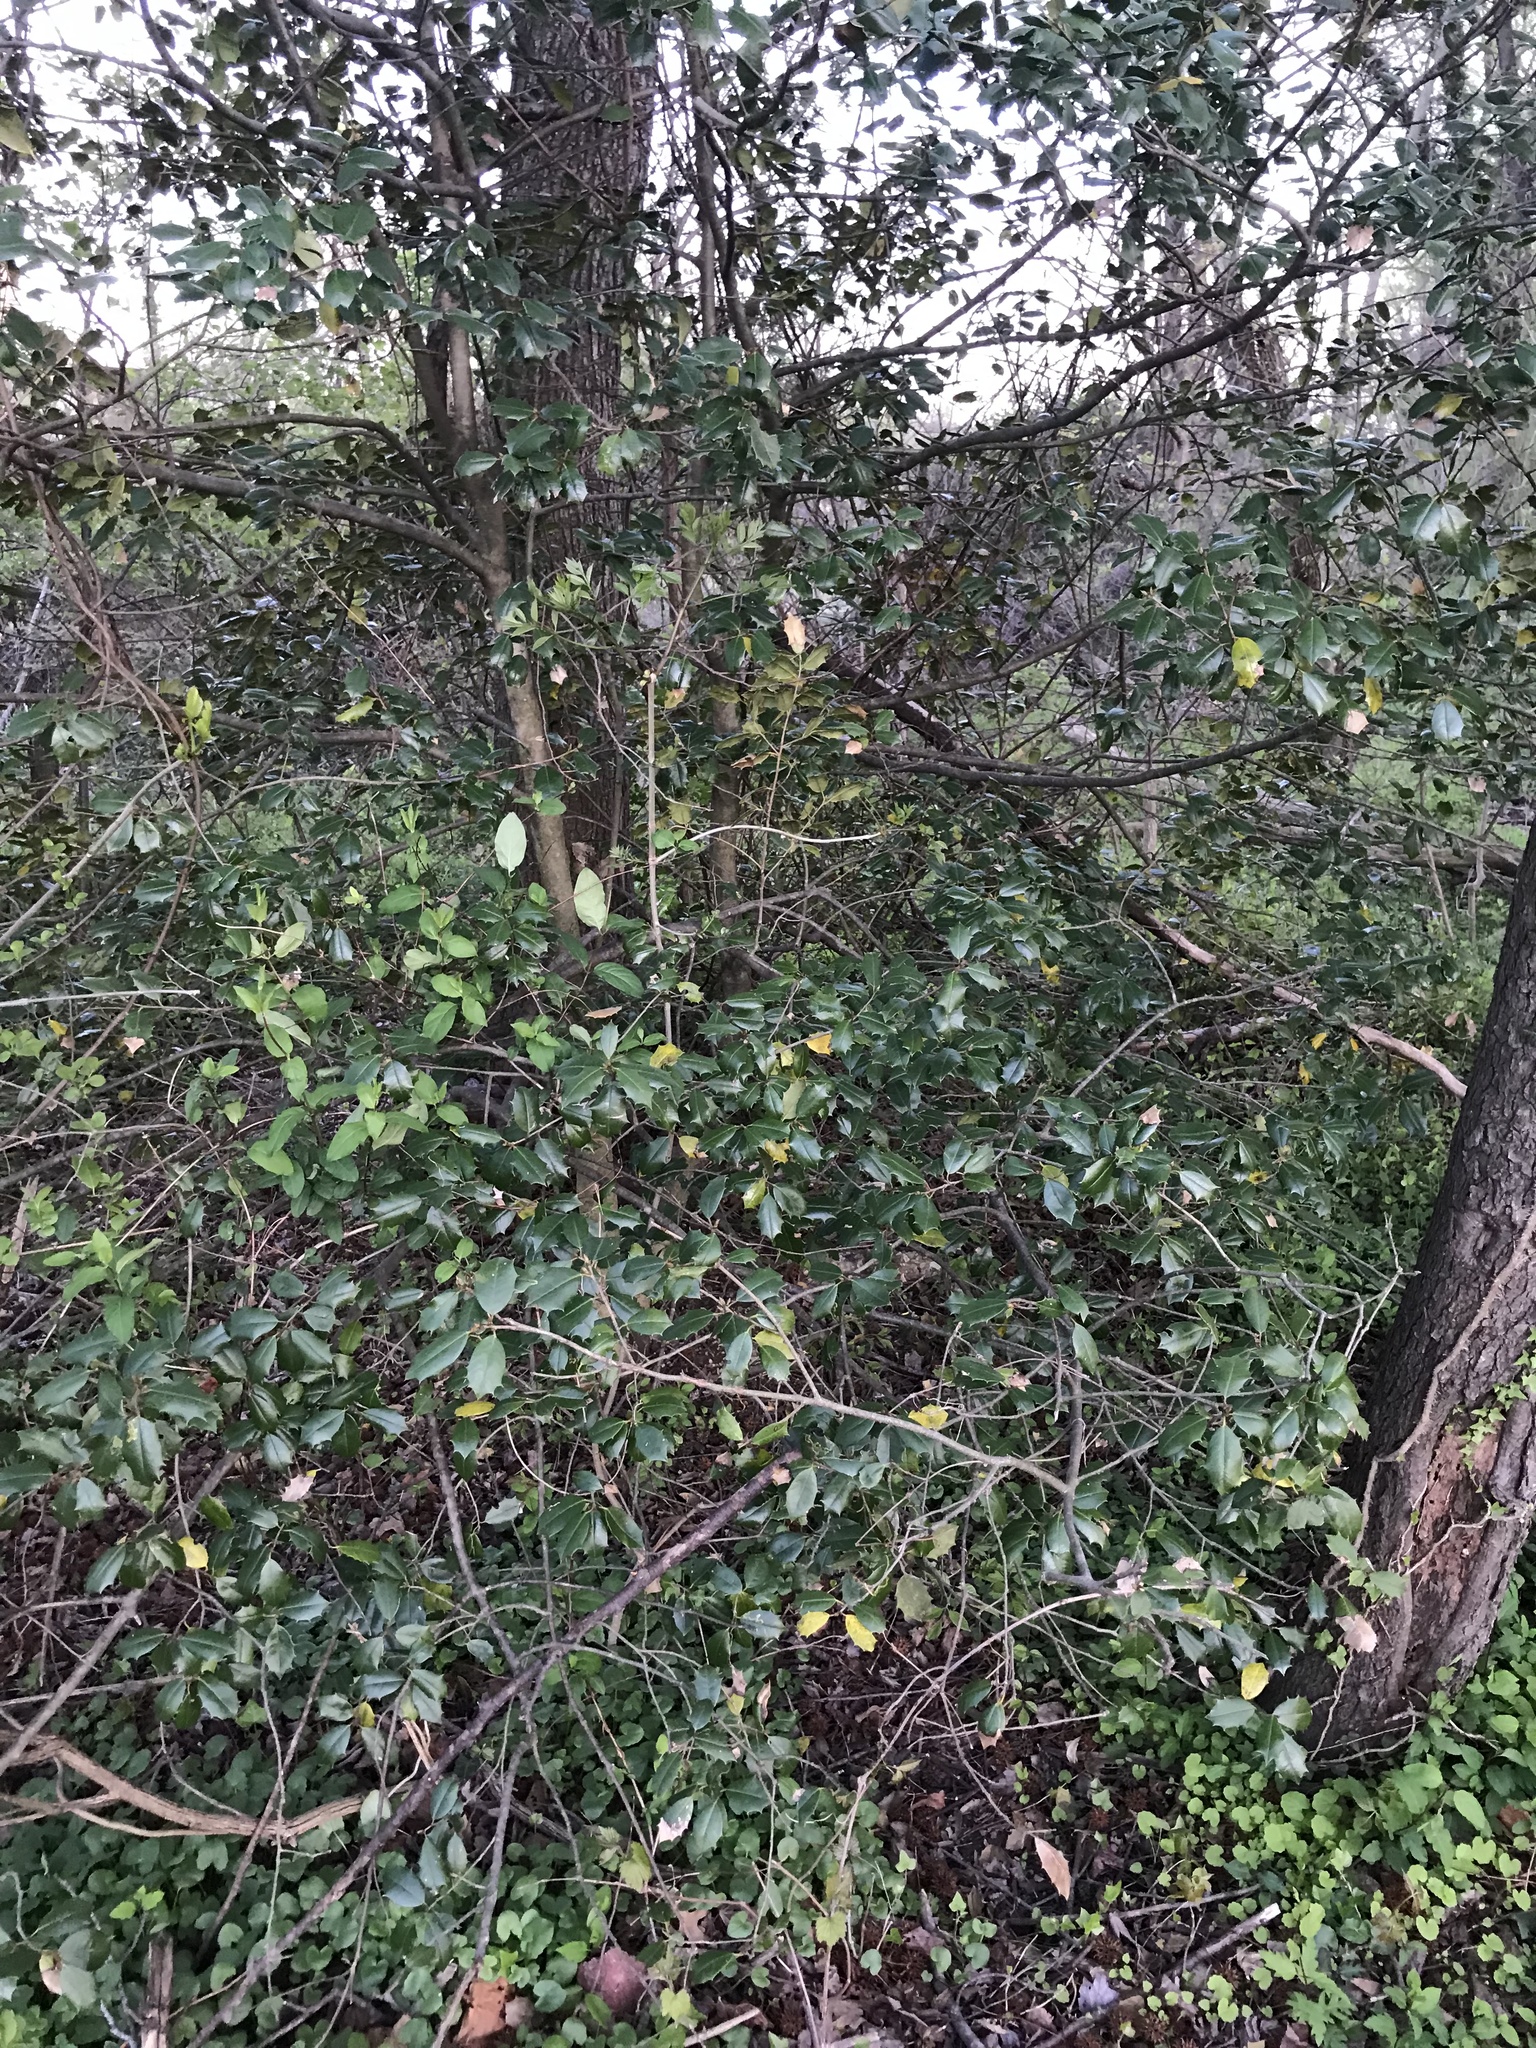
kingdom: Plantae
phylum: Tracheophyta
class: Magnoliopsida
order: Aquifoliales
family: Aquifoliaceae
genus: Ilex
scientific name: Ilex opaca
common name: American holly
